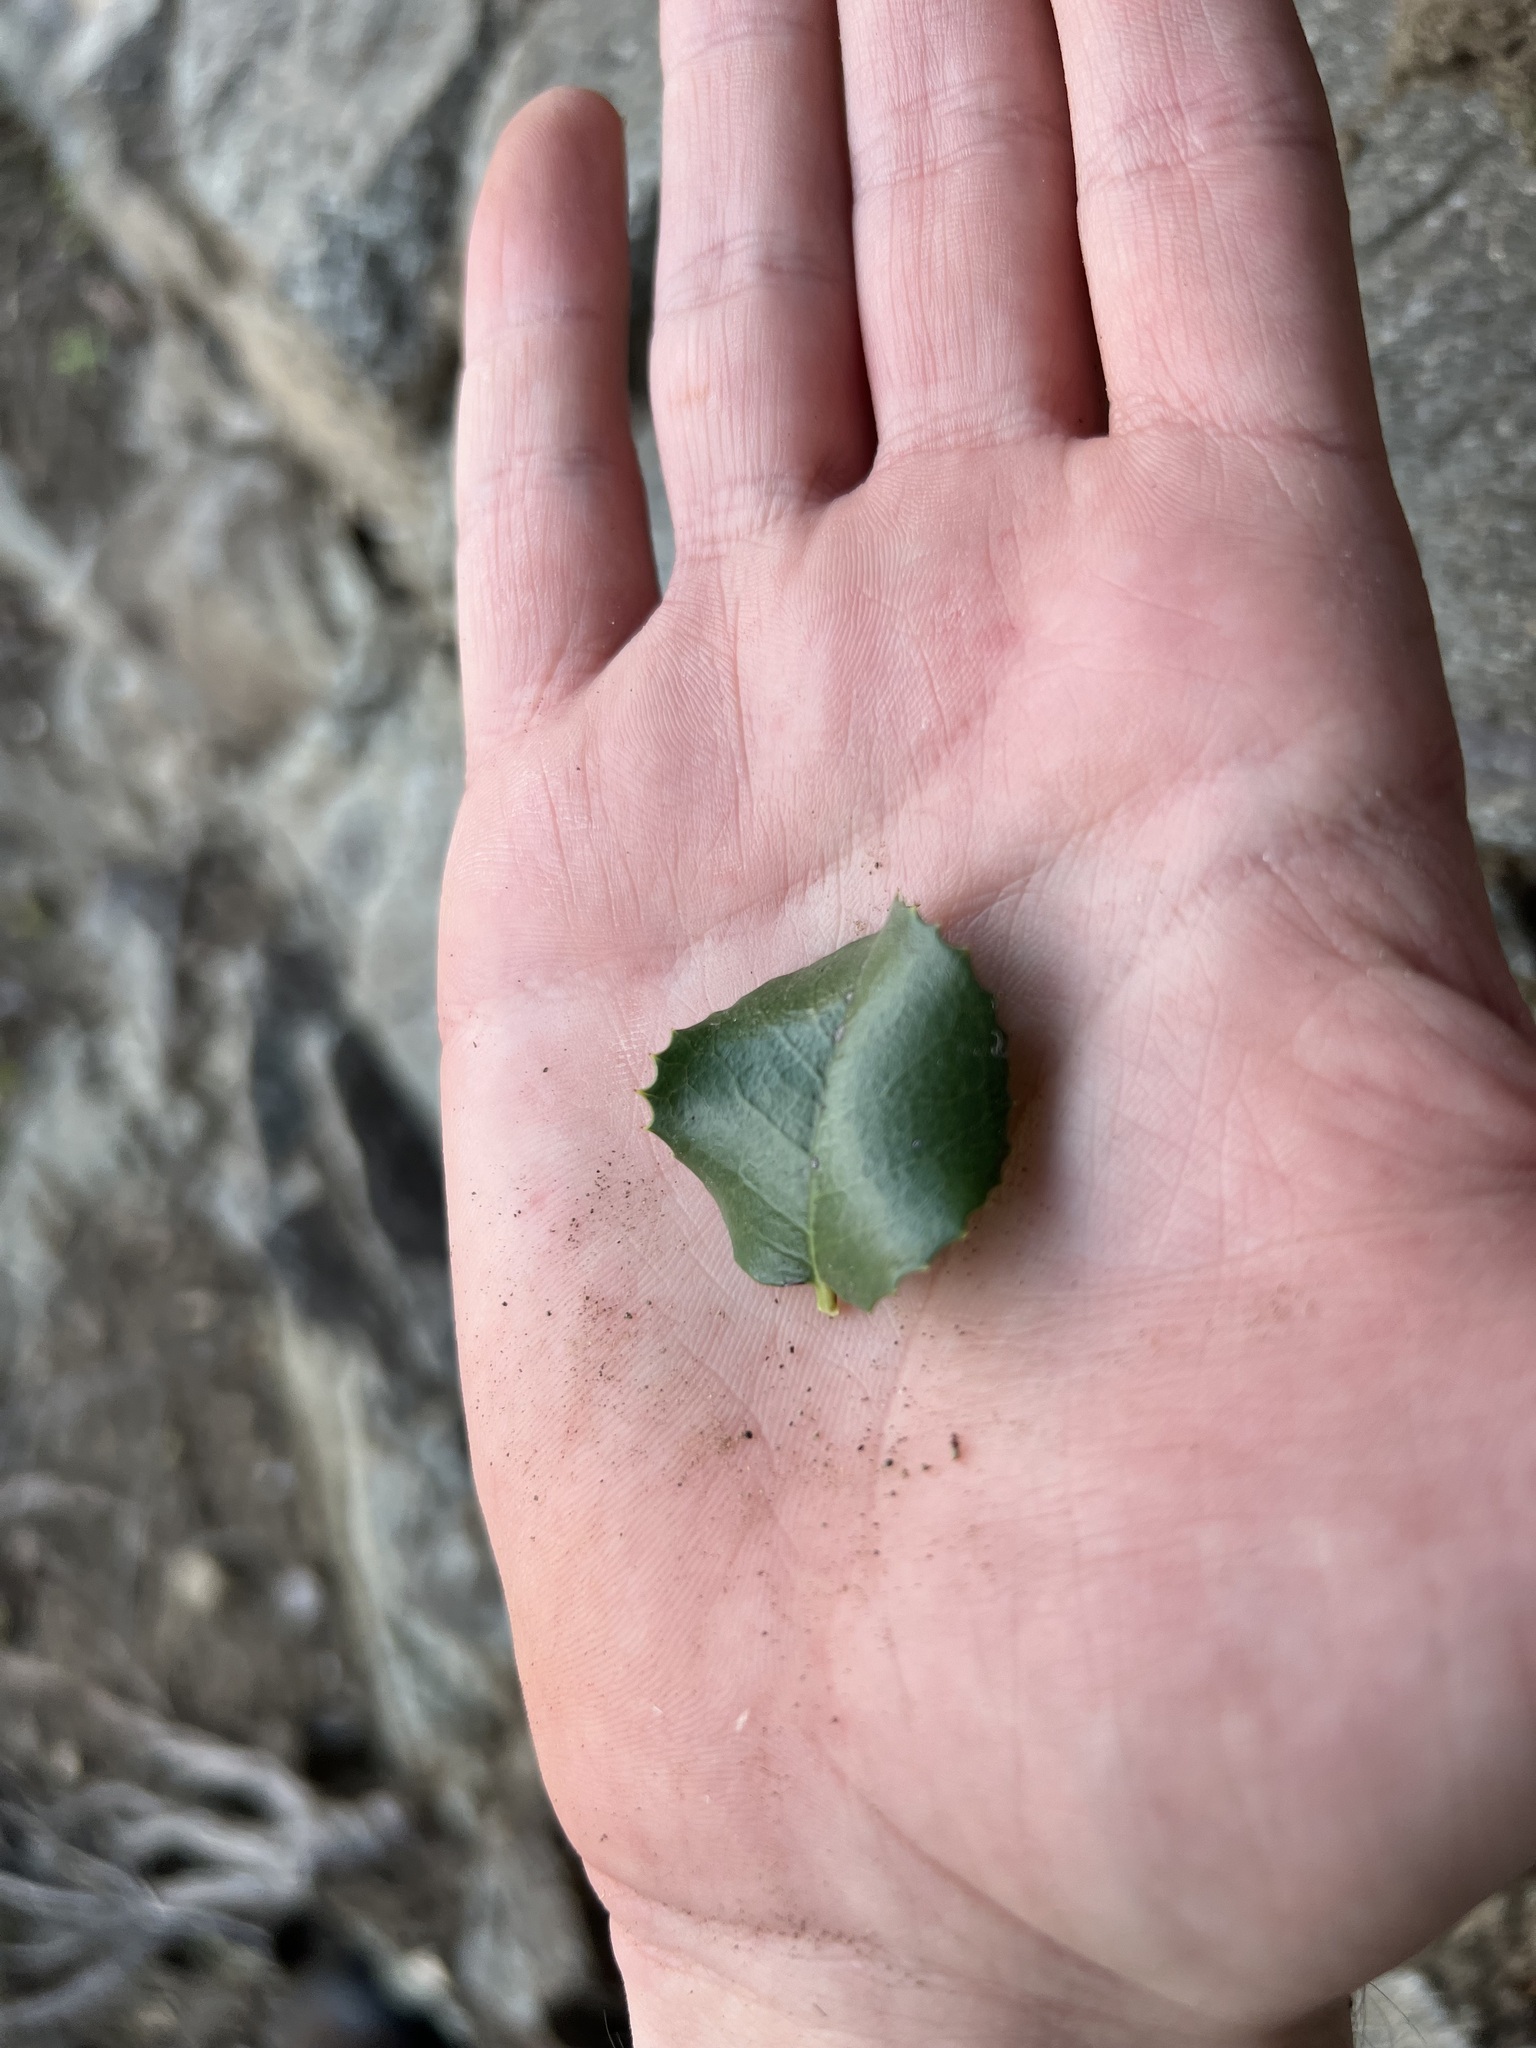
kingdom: Plantae
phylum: Tracheophyta
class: Magnoliopsida
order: Rosales
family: Rosaceae
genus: Prunus
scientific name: Prunus ilicifolia
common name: Hollyleaf cherry
